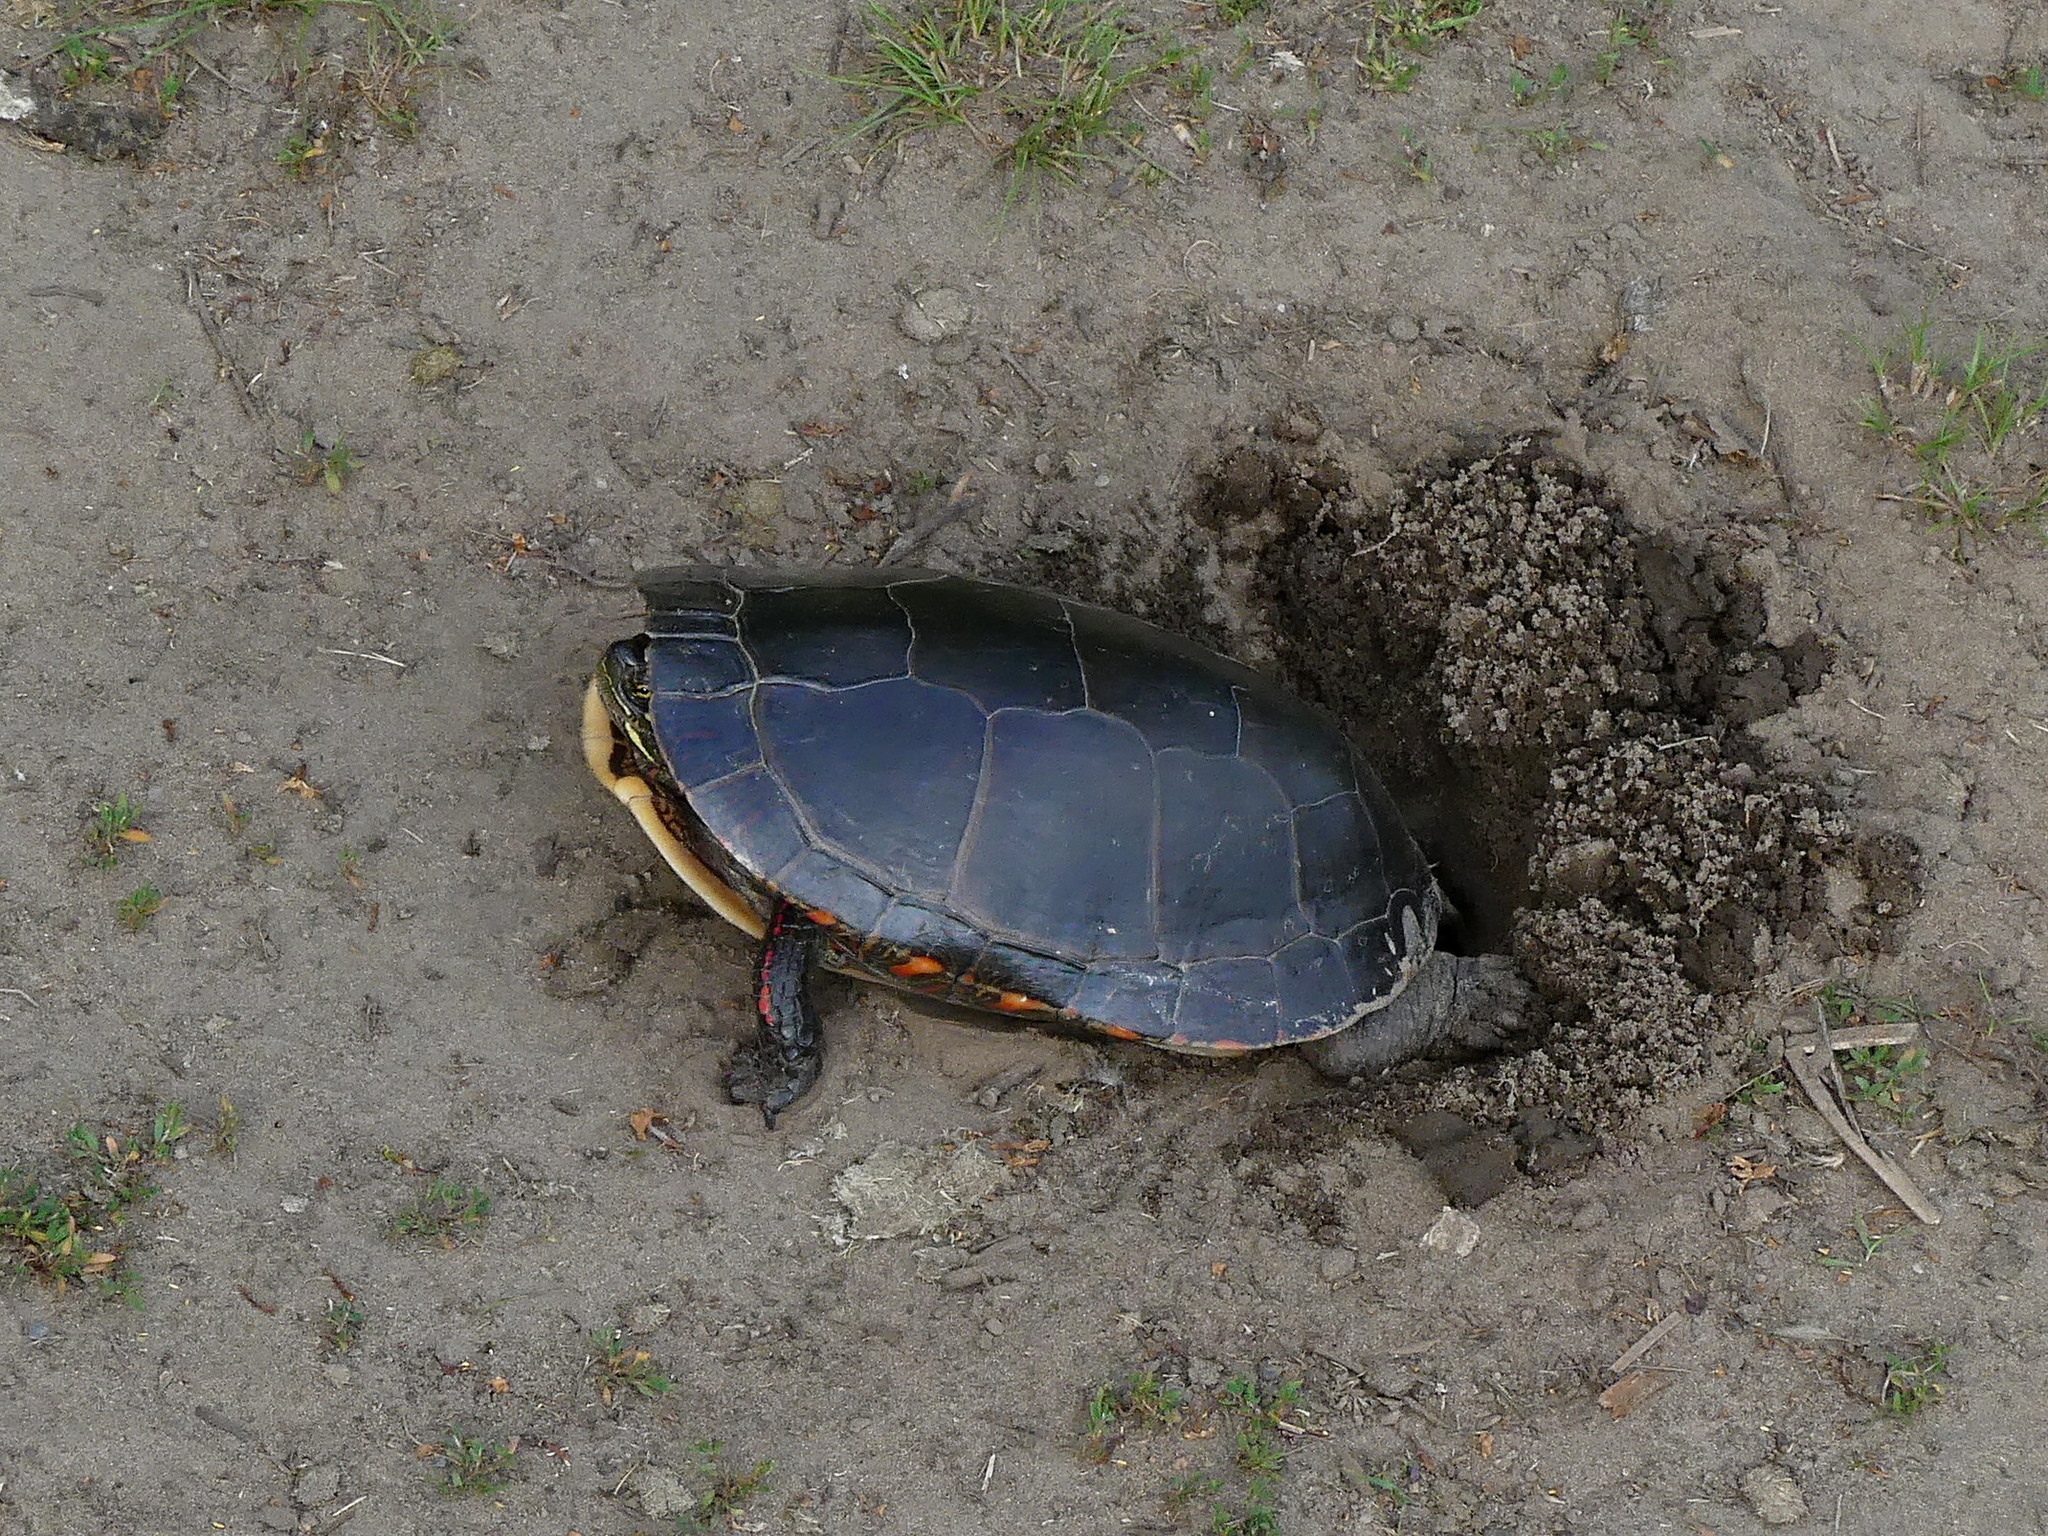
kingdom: Animalia
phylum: Chordata
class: Testudines
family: Emydidae
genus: Chrysemys
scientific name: Chrysemys picta
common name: Painted turtle
